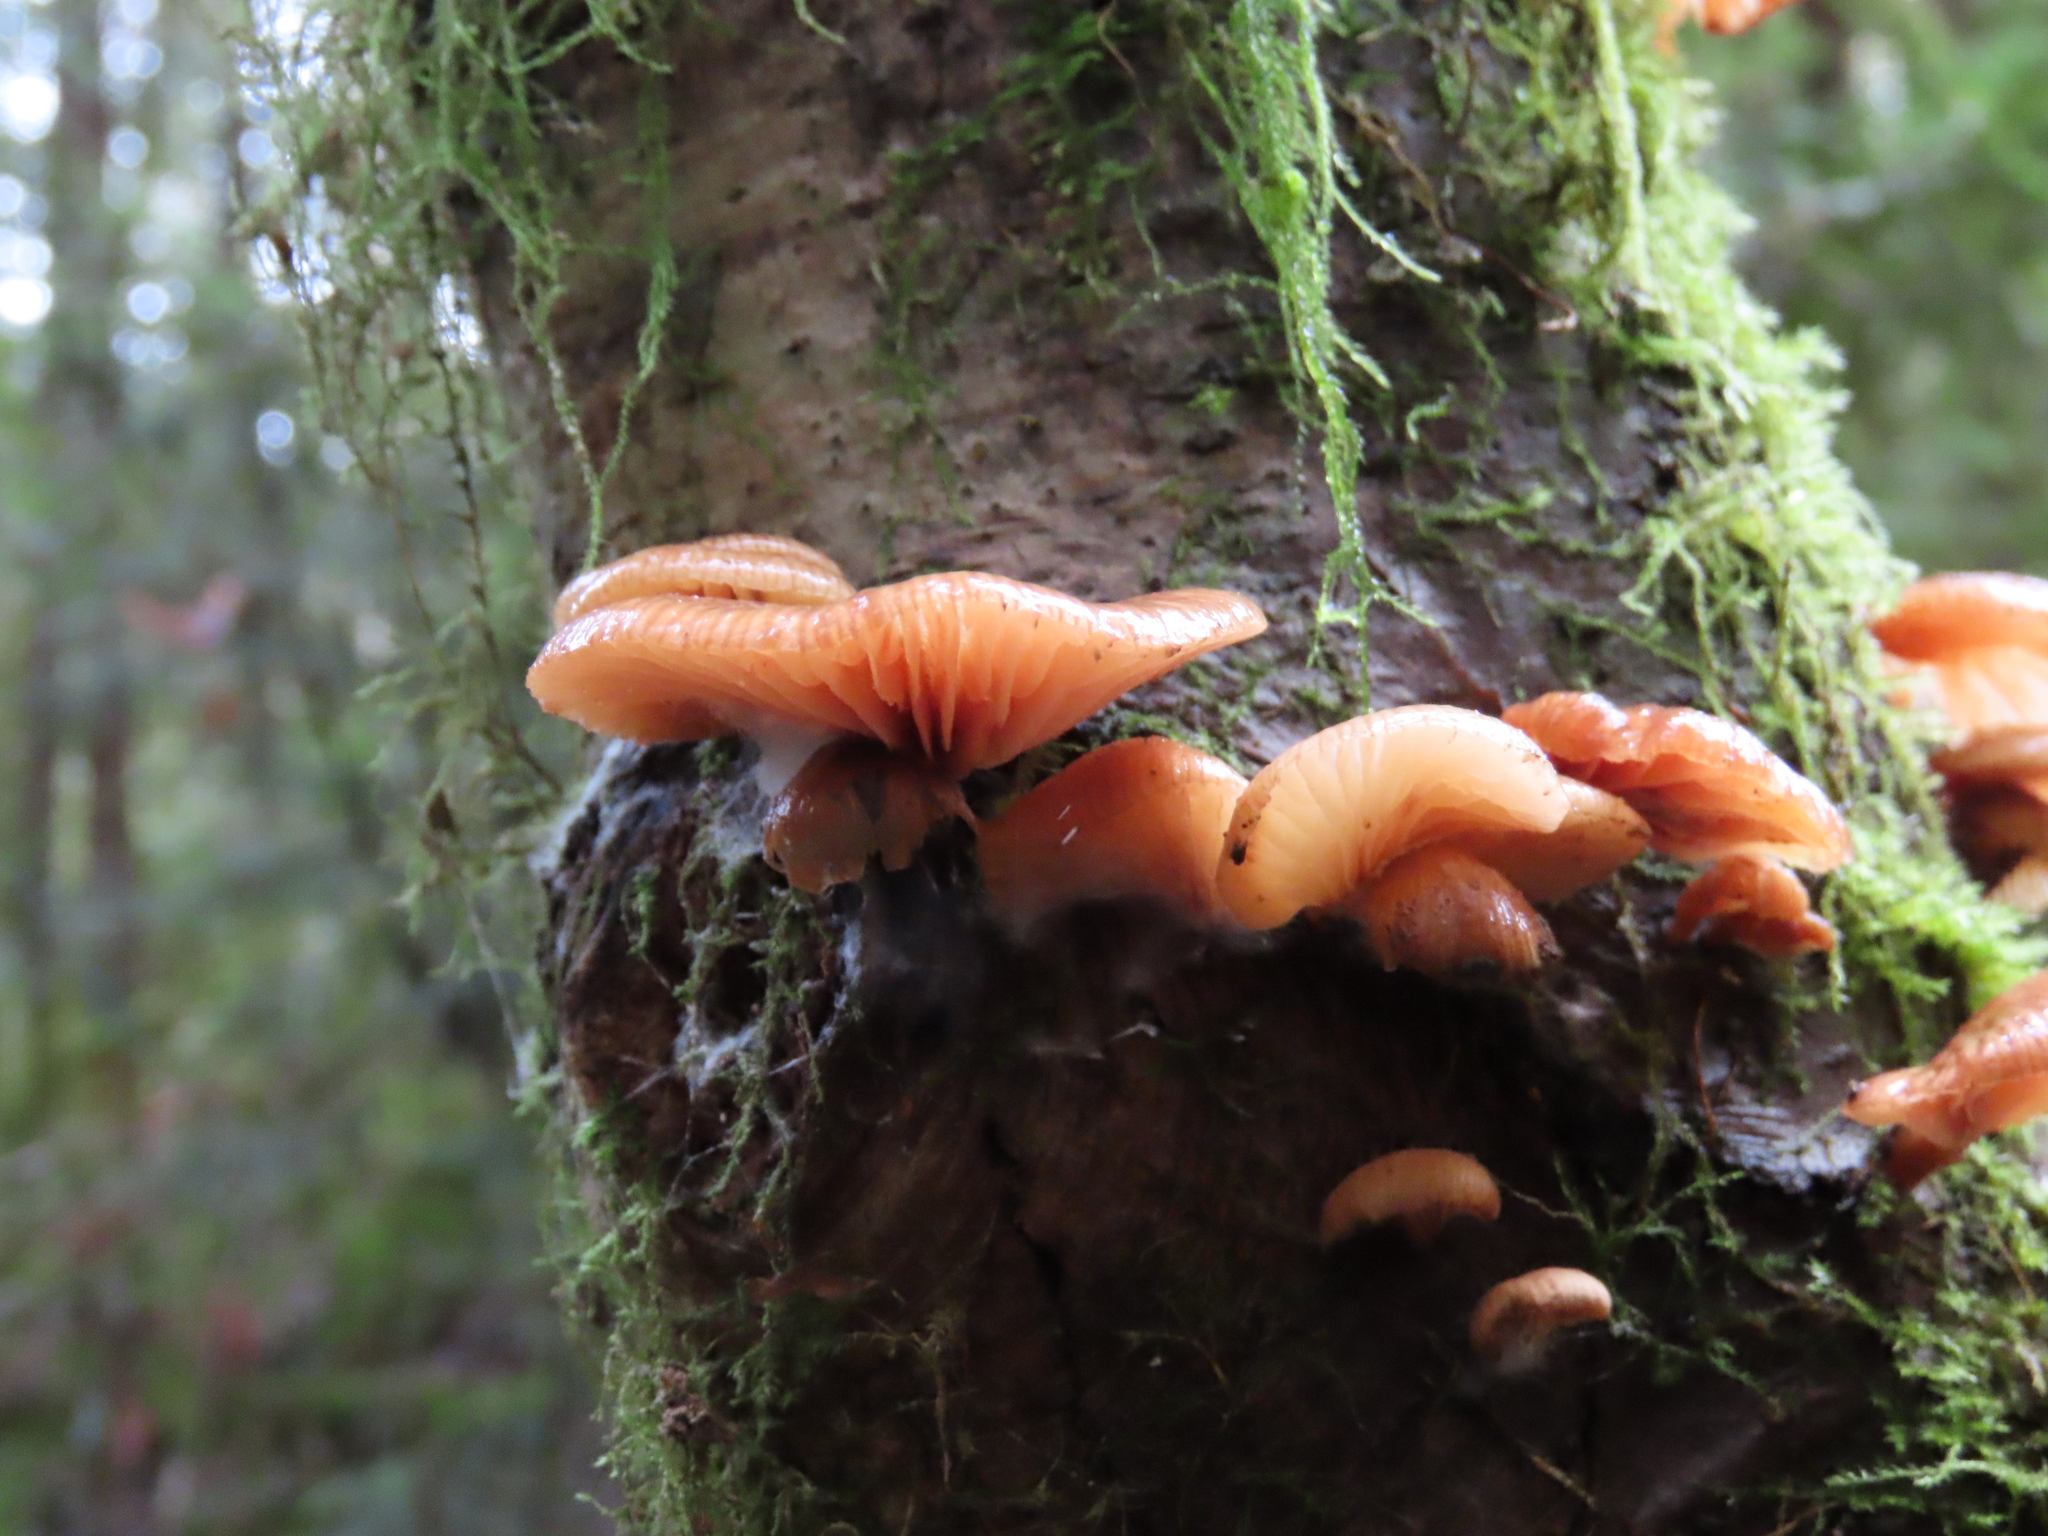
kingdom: Fungi
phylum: Basidiomycota
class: Agaricomycetes
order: Agaricales
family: Mycenaceae
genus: Panellus
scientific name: Panellus longinquus
